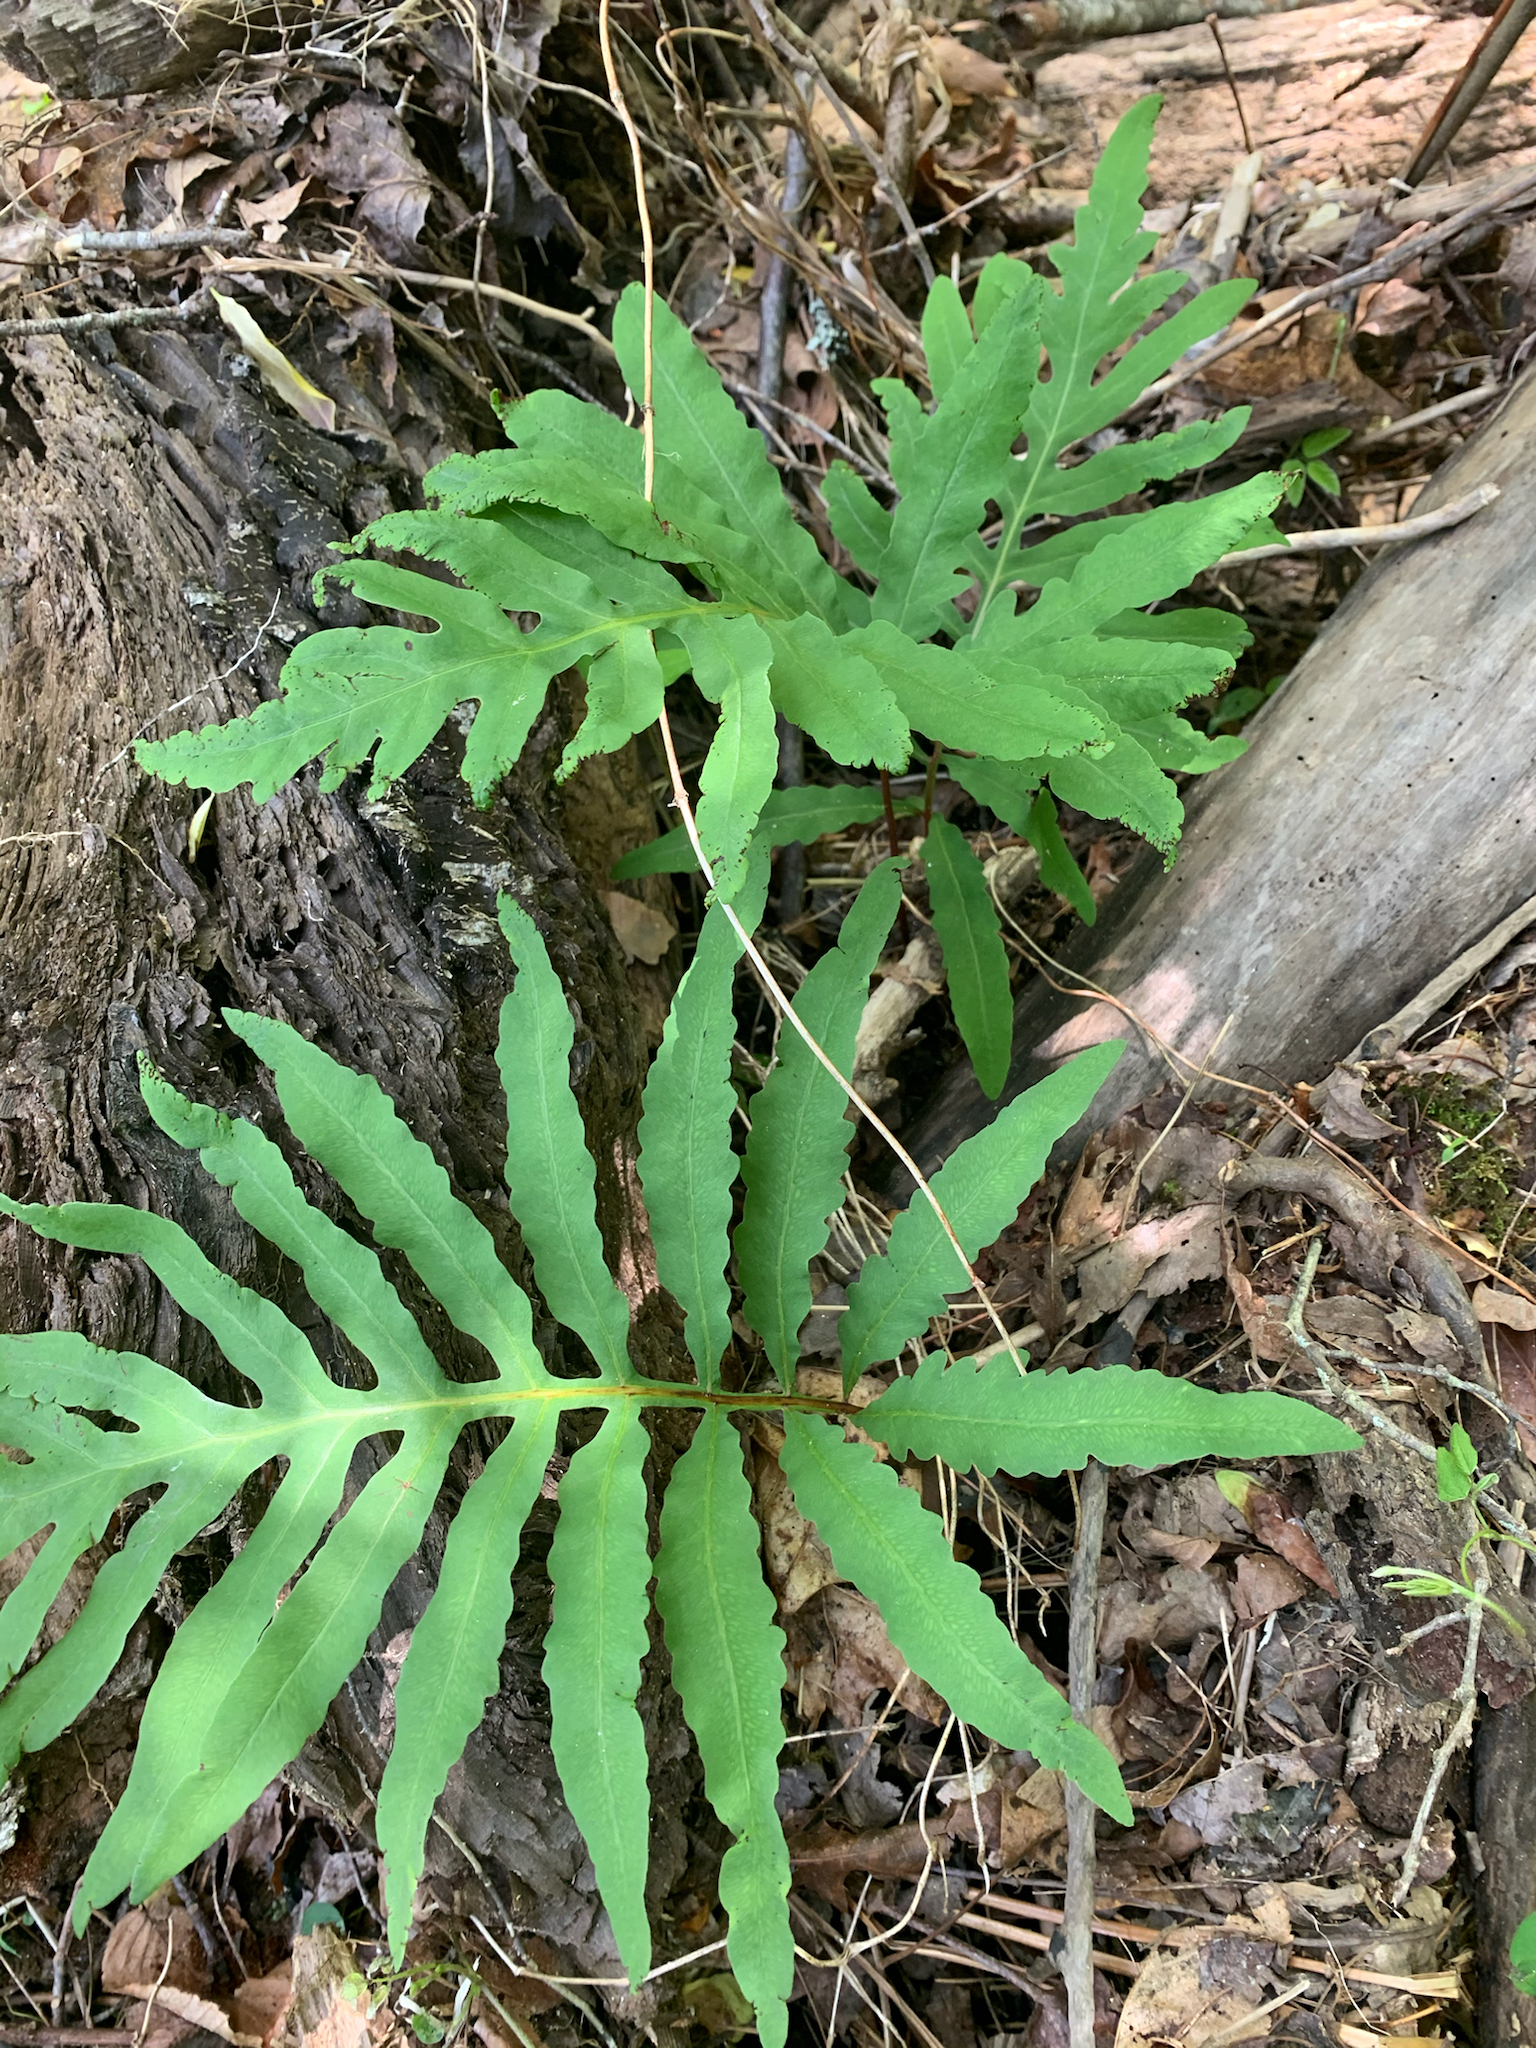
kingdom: Plantae
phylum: Tracheophyta
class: Polypodiopsida
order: Polypodiales
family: Onocleaceae
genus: Onoclea
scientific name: Onoclea sensibilis
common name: Sensitive fern
